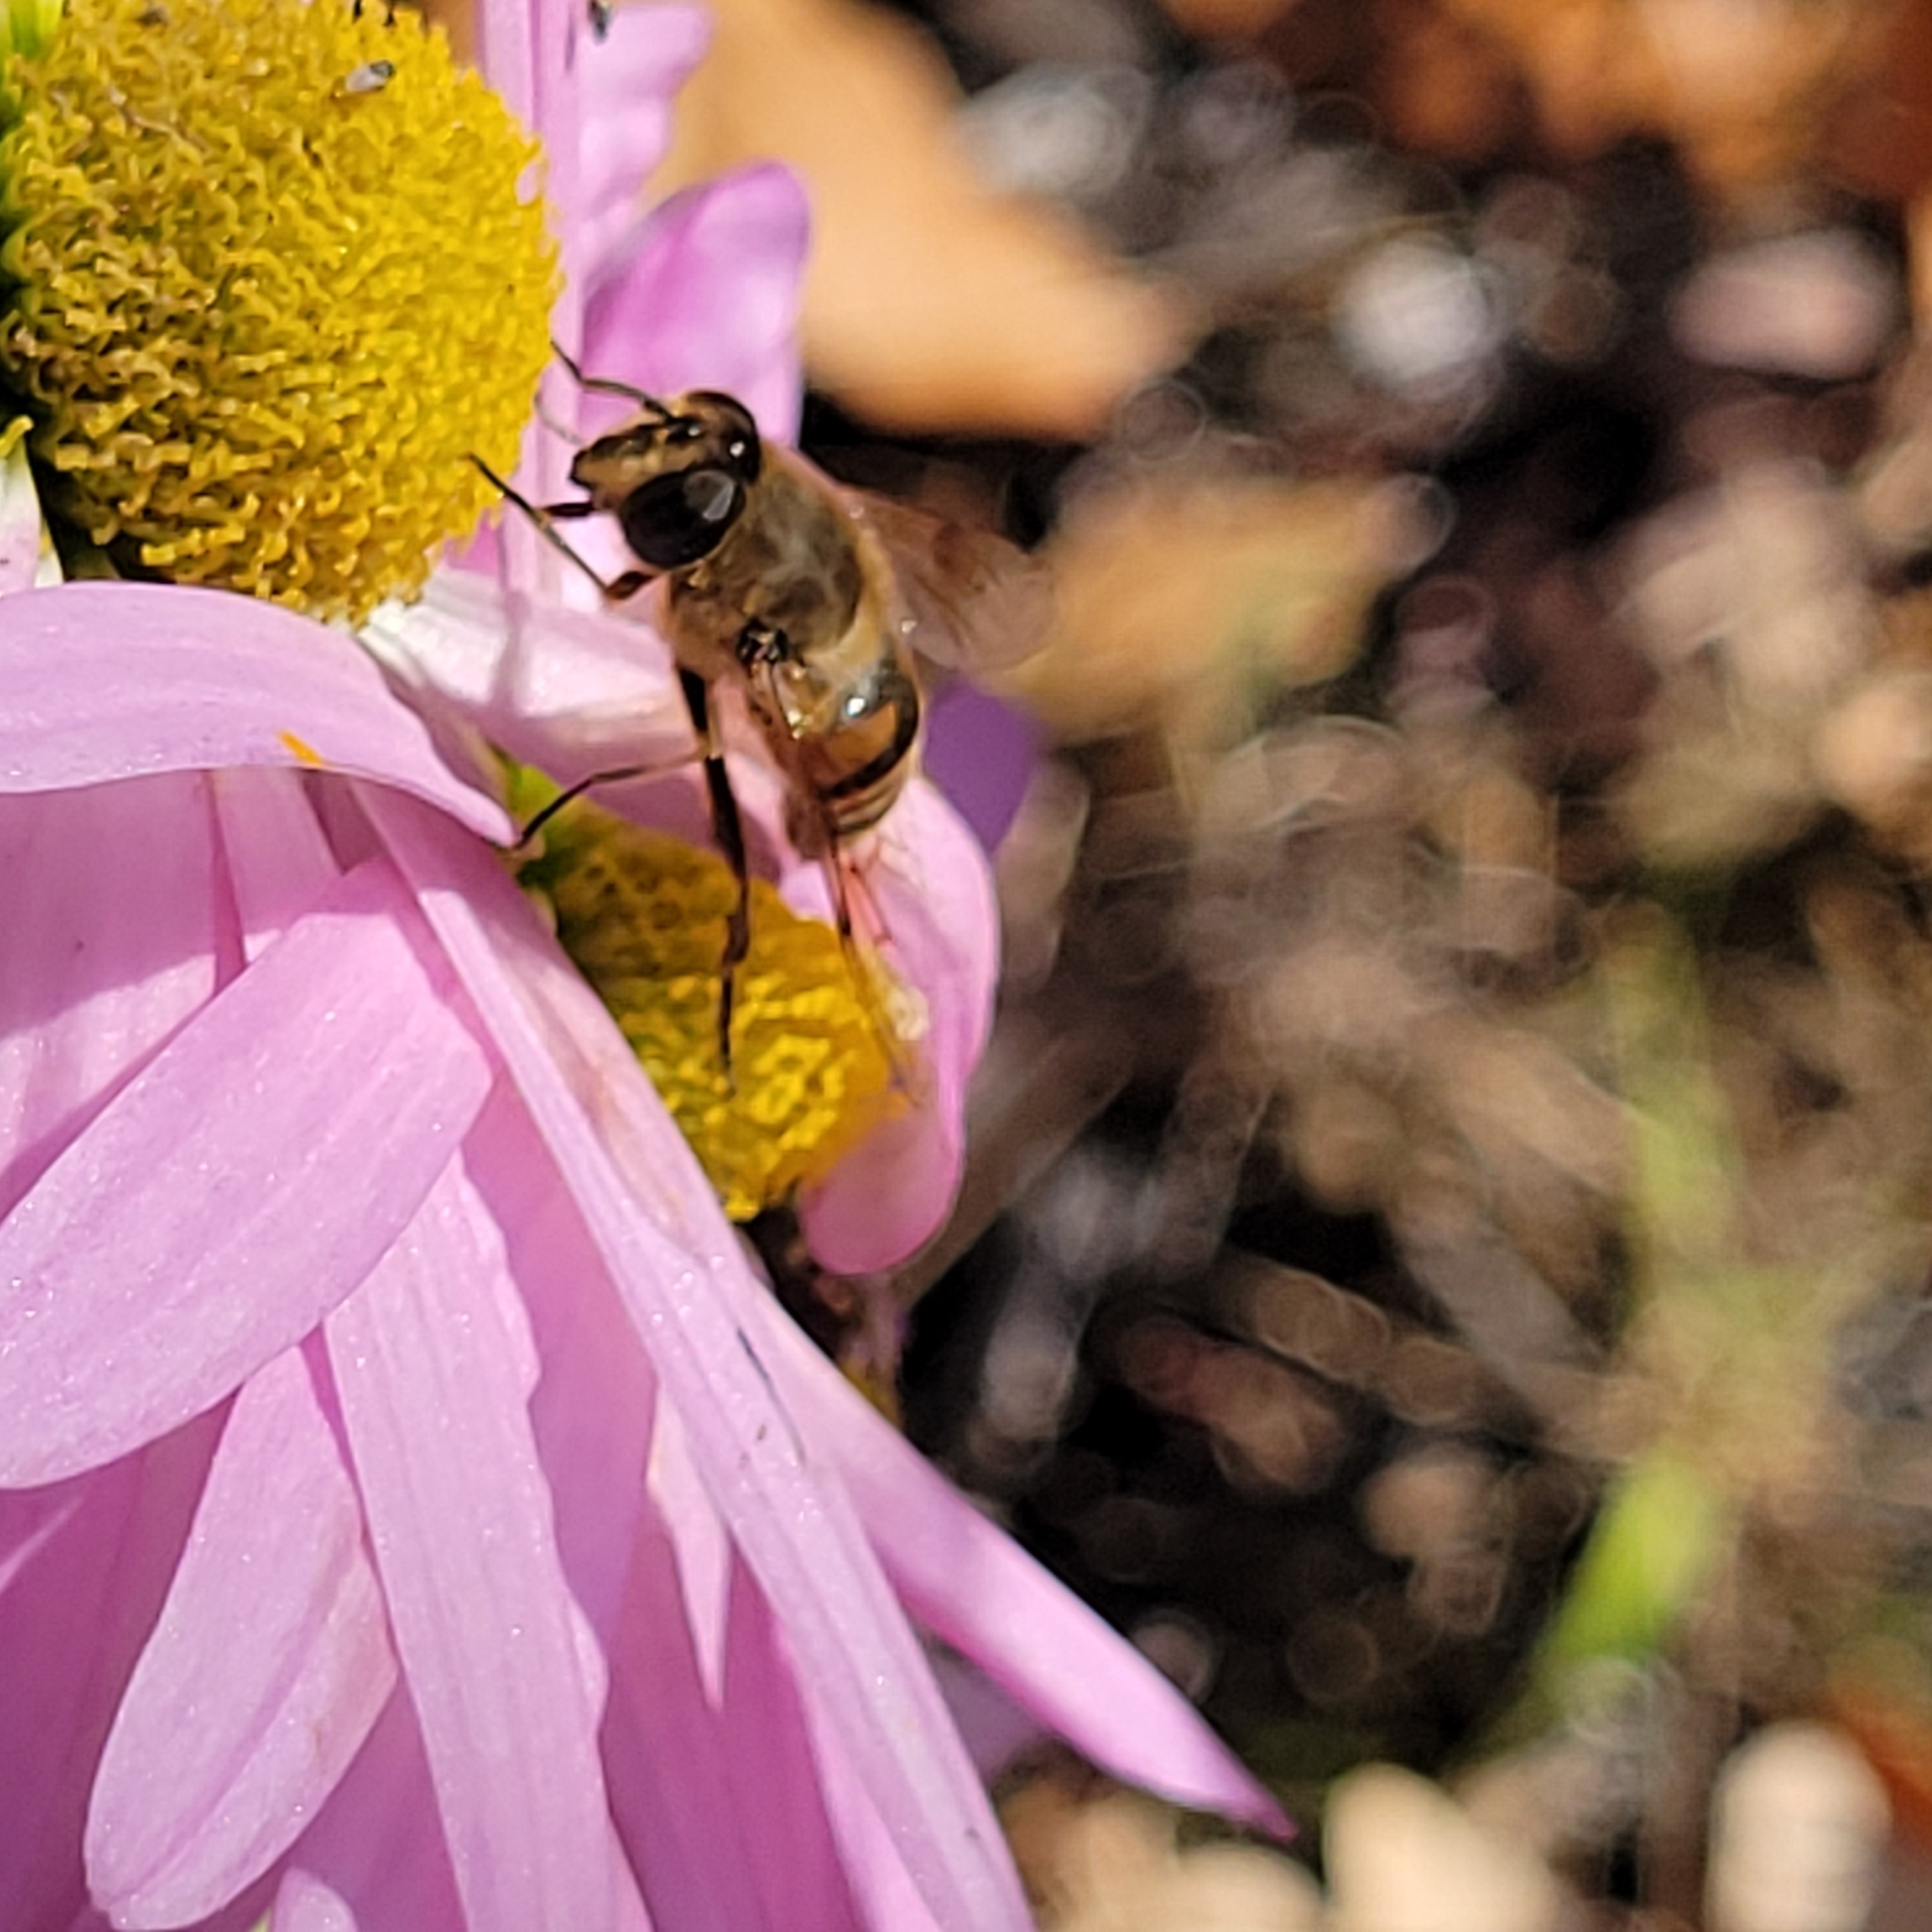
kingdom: Animalia
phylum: Arthropoda
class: Insecta
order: Diptera
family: Syrphidae
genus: Eristalis
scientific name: Eristalis tenax
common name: Drone fly
